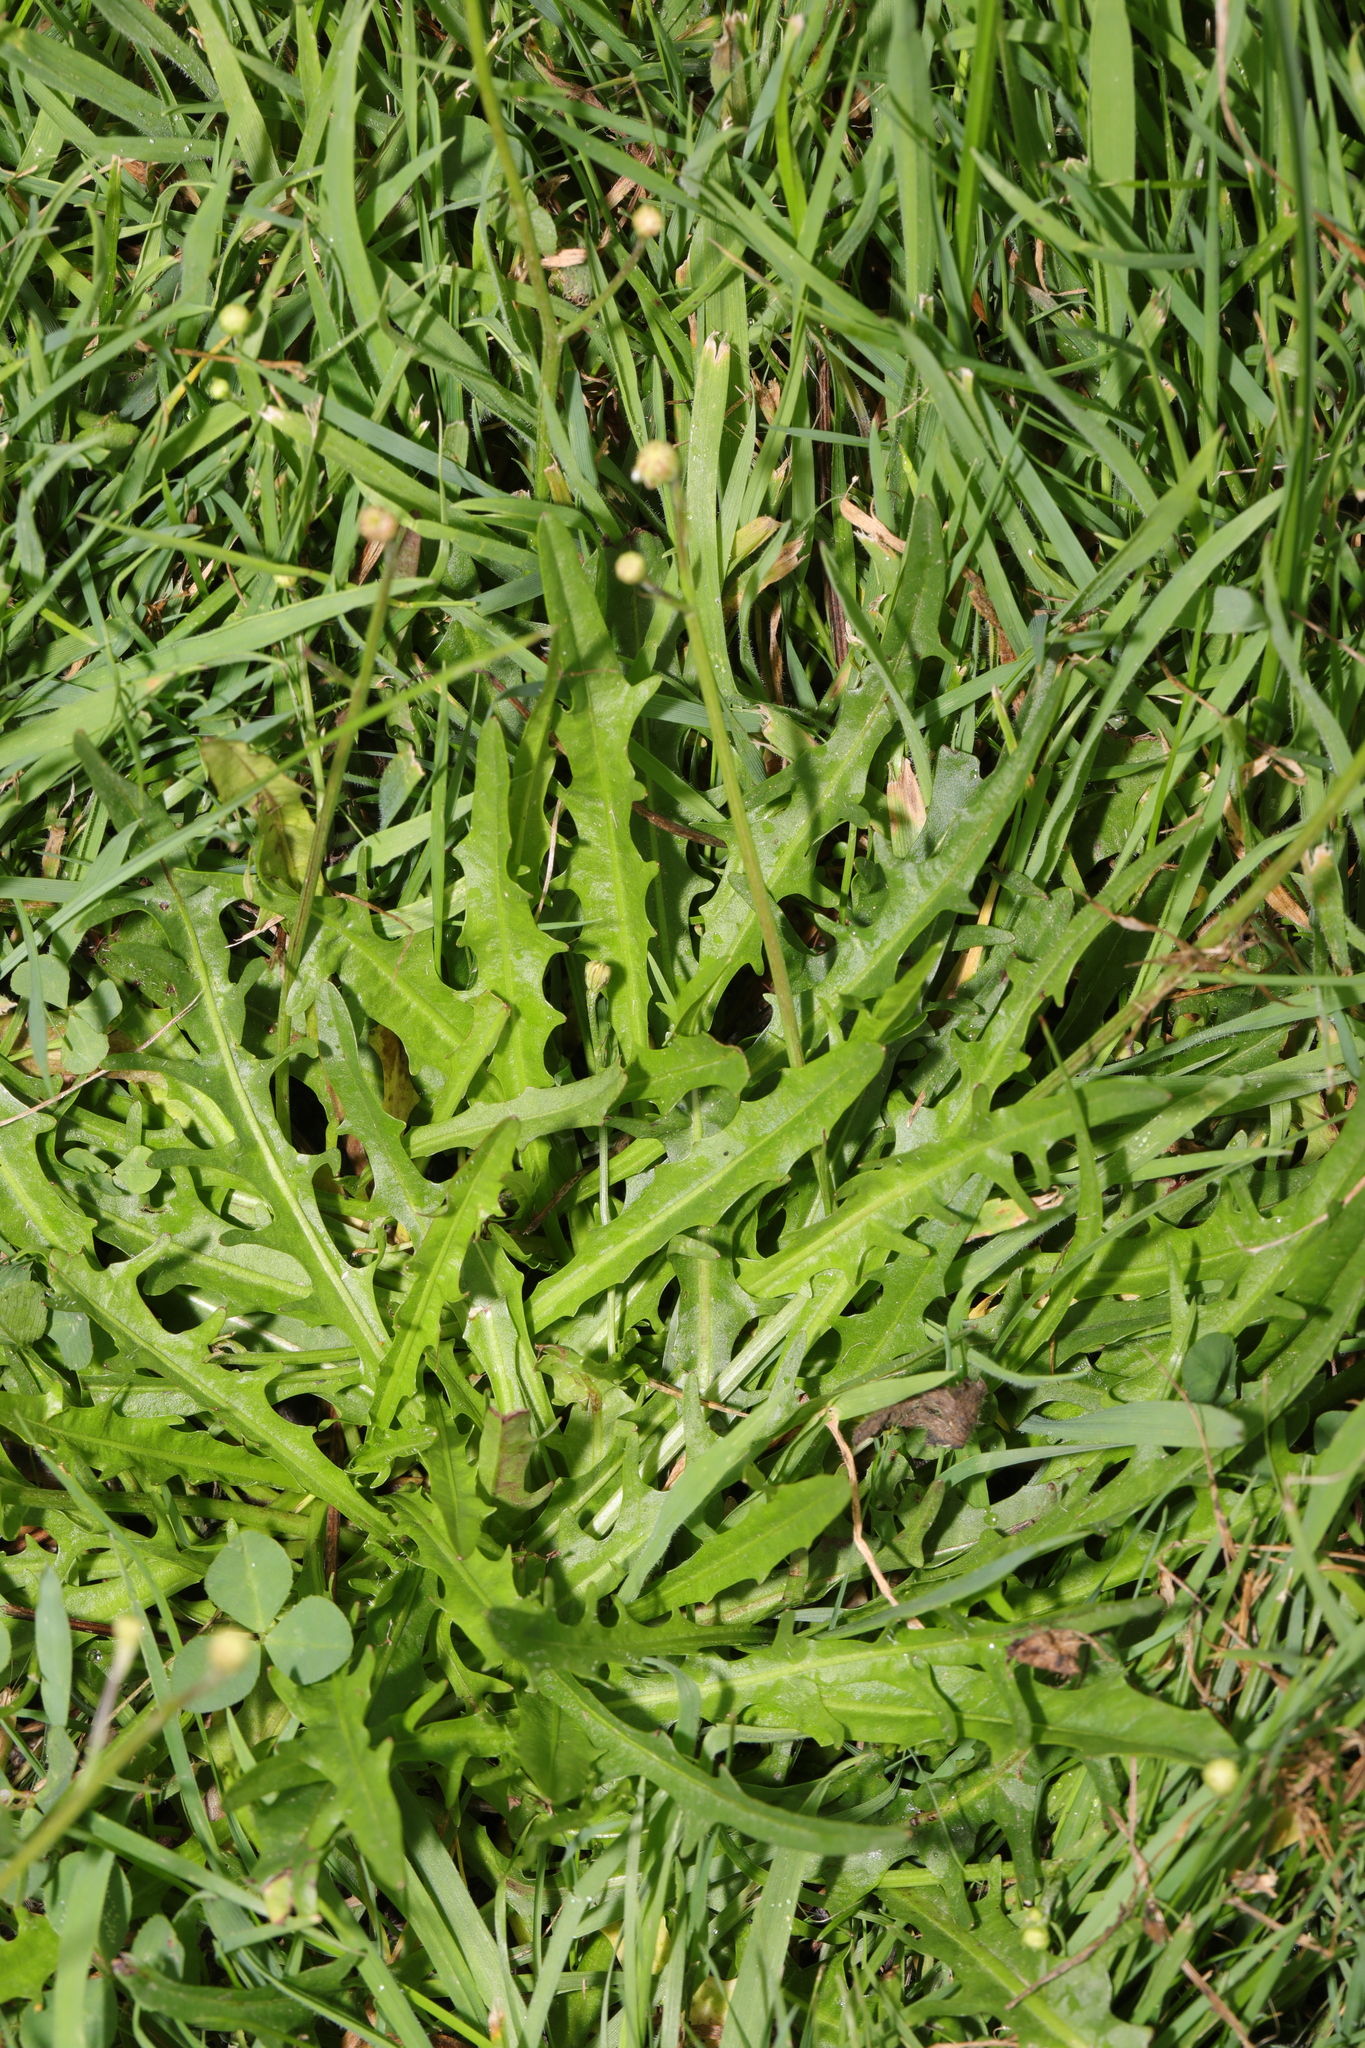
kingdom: Plantae
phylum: Tracheophyta
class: Magnoliopsida
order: Asterales
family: Asteraceae
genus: Scorzoneroides
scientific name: Scorzoneroides autumnalis
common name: Autumn hawkbit
